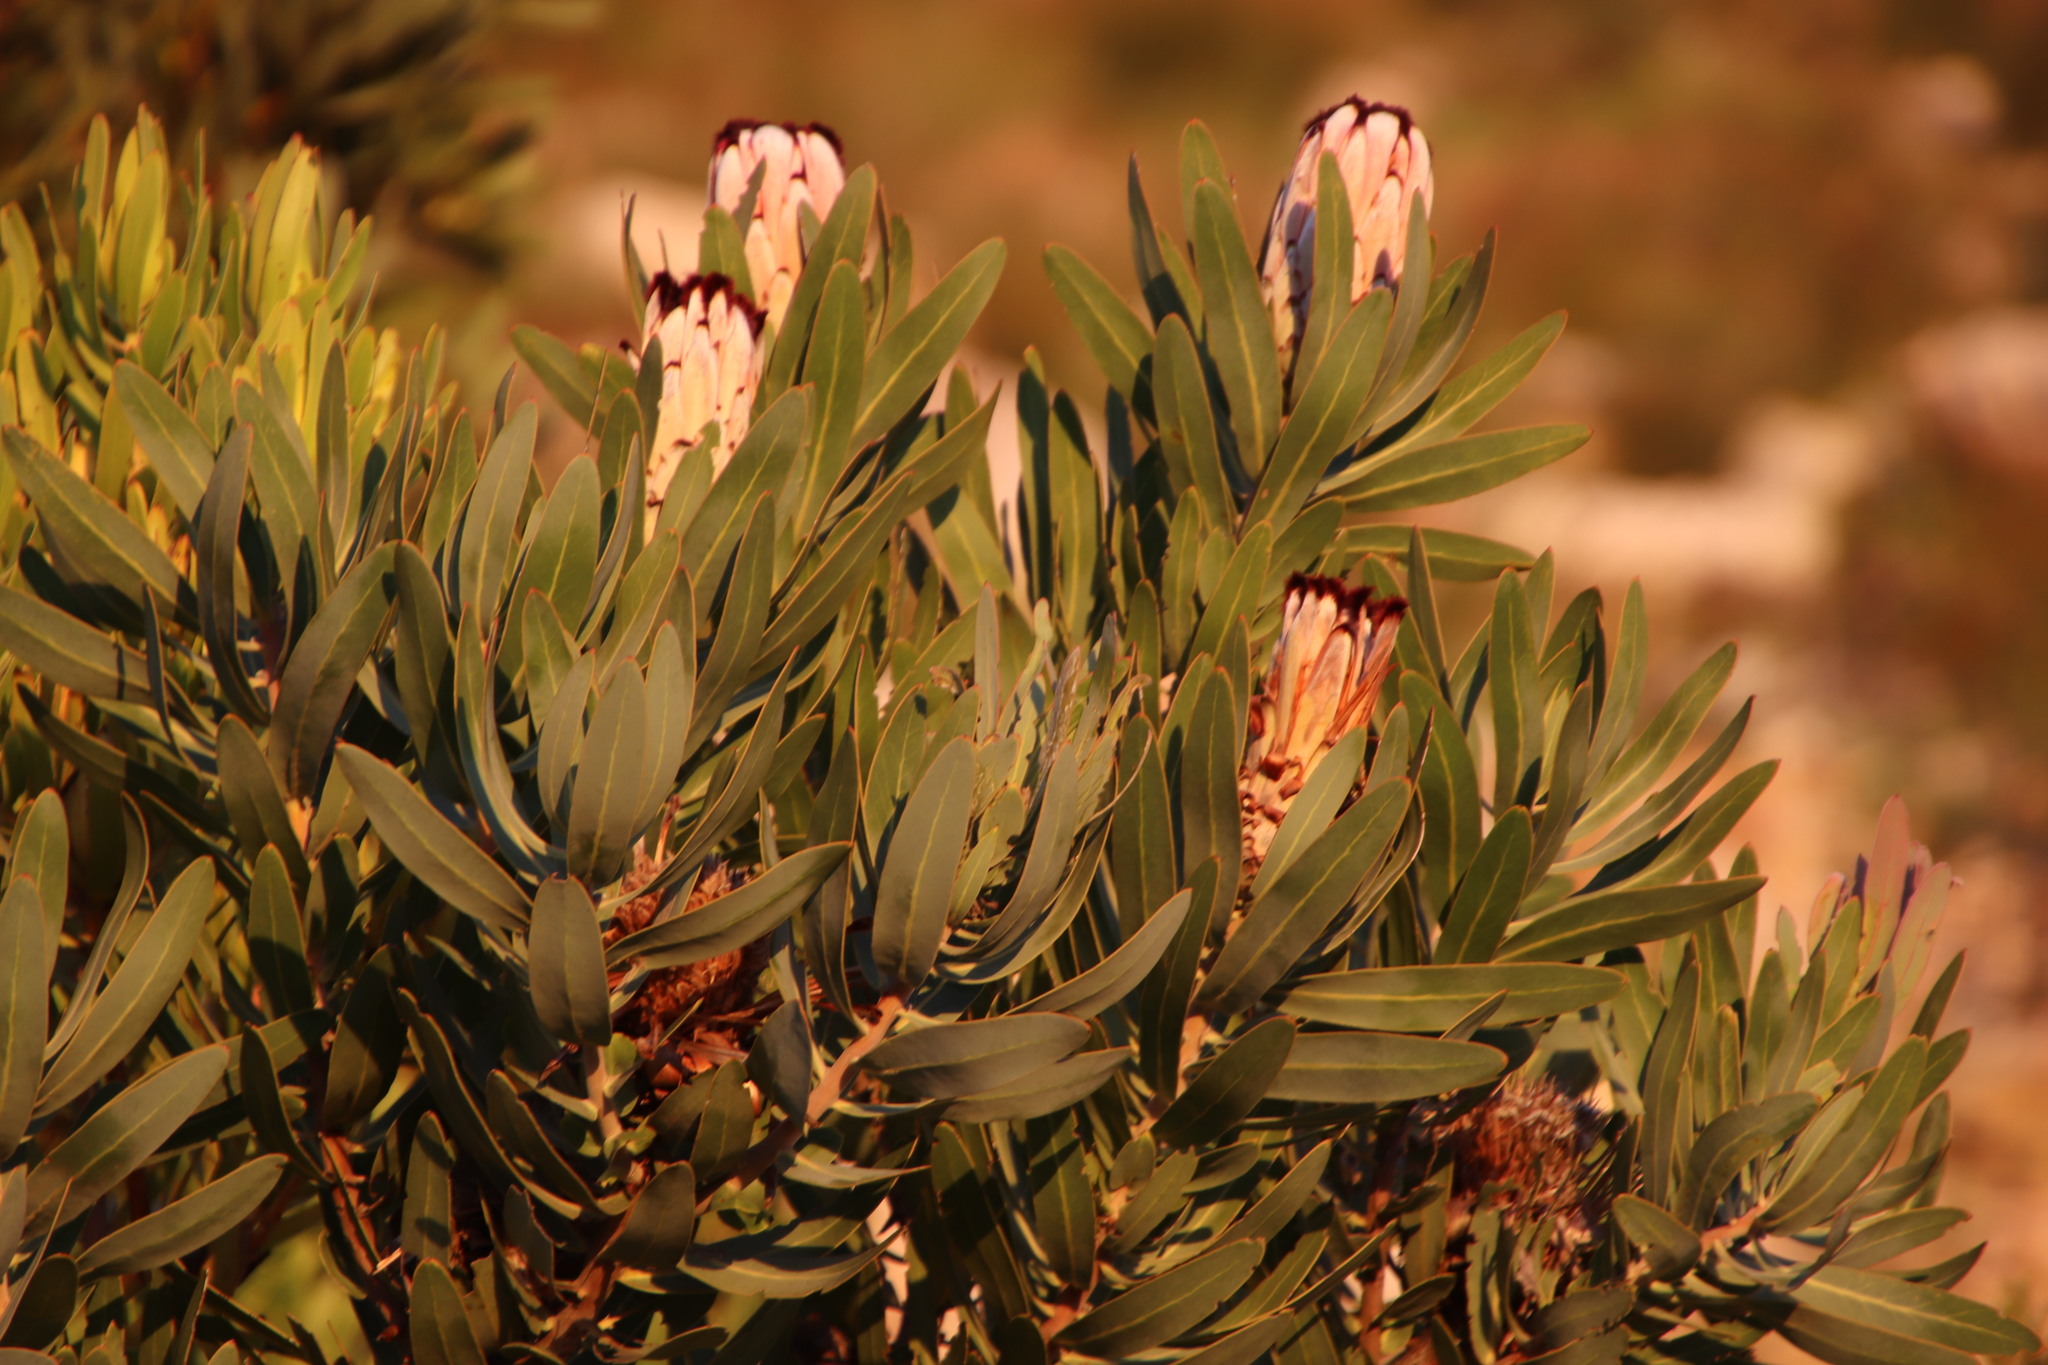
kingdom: Plantae
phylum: Tracheophyta
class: Magnoliopsida
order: Proteales
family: Proteaceae
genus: Protea
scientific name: Protea neriifolia
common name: Blue sugarbush
